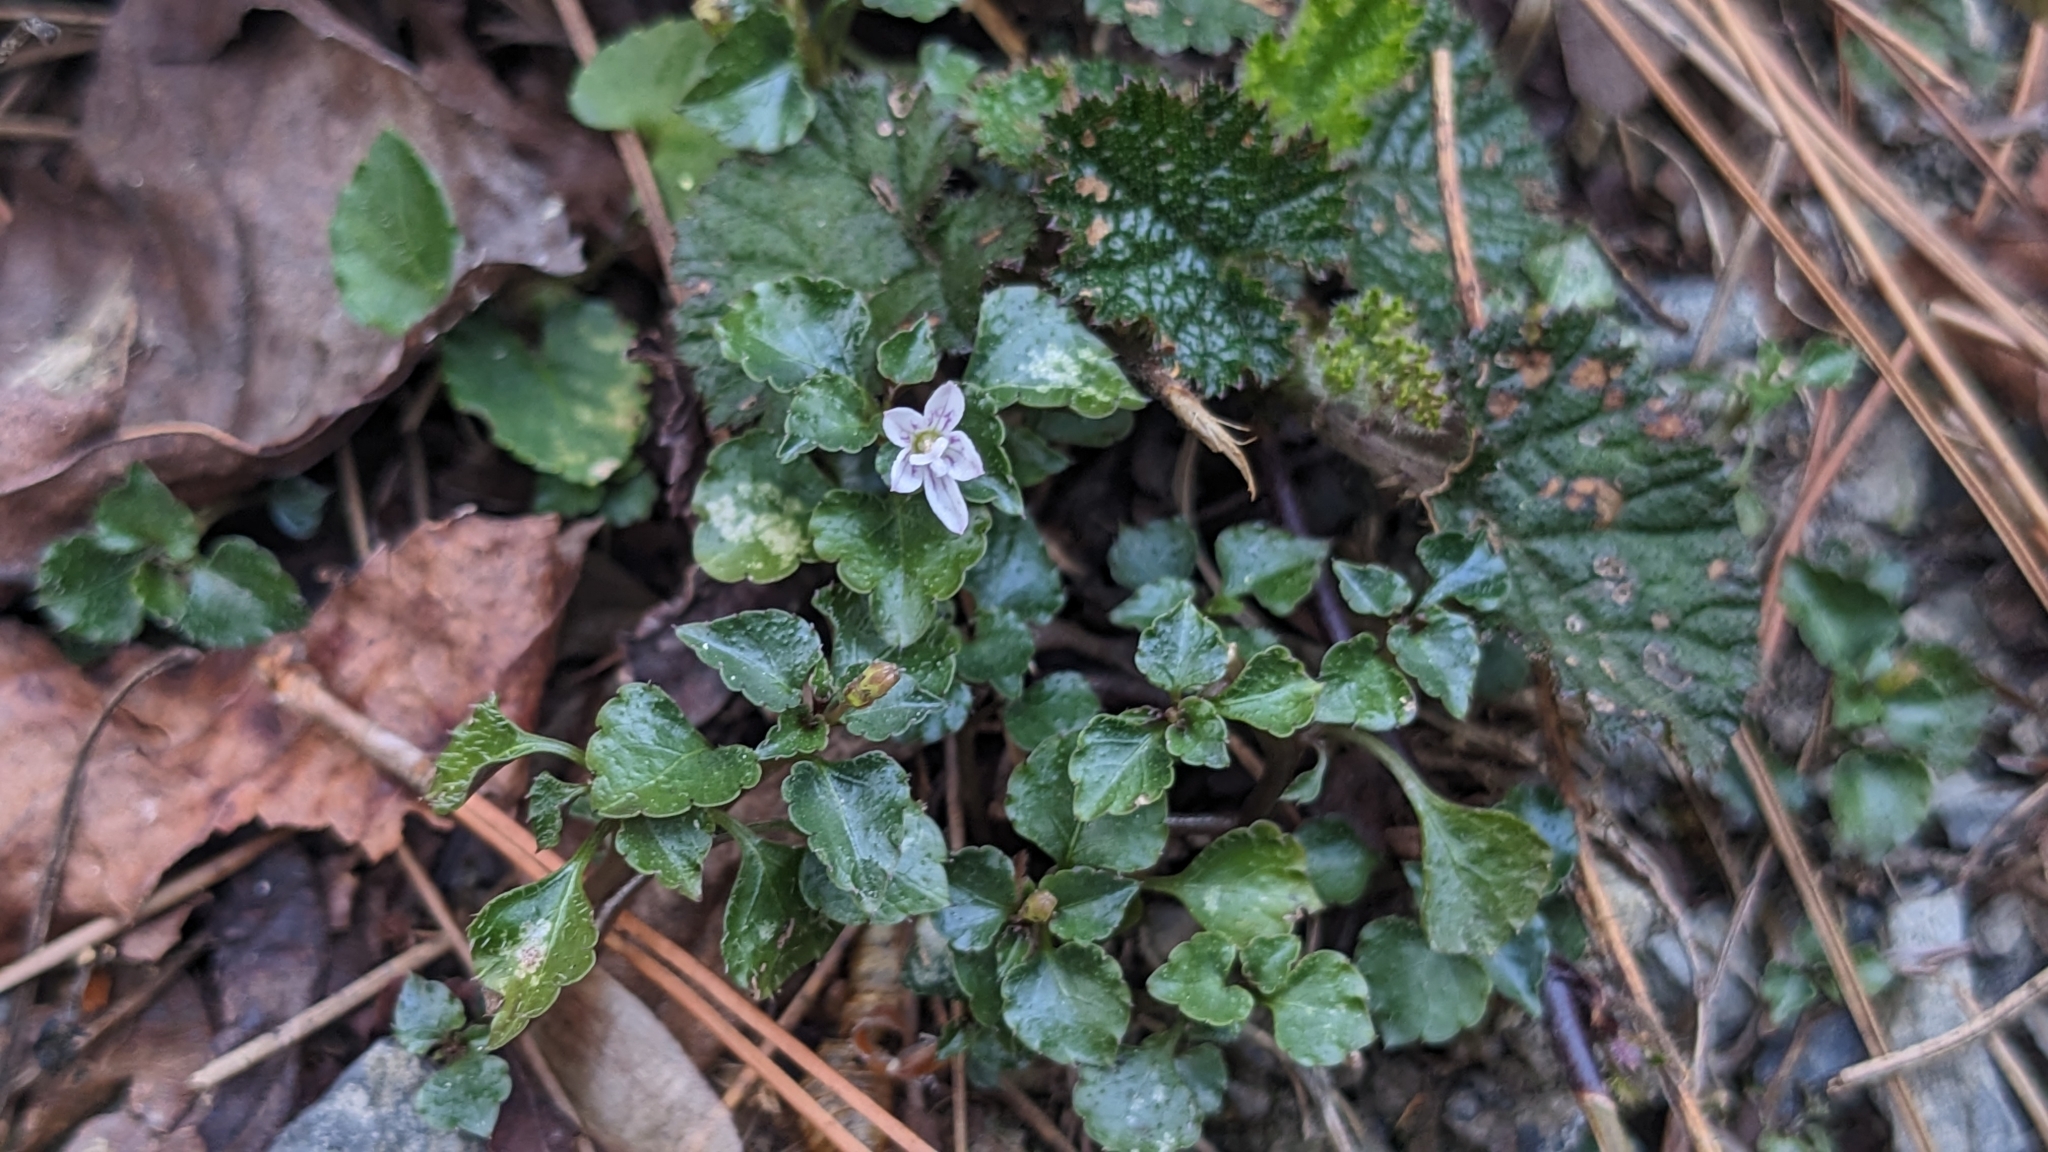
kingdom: Plantae
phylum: Tracheophyta
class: Magnoliopsida
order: Asterales
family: Campanulaceae
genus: Peracarpa
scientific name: Peracarpa carnosa
